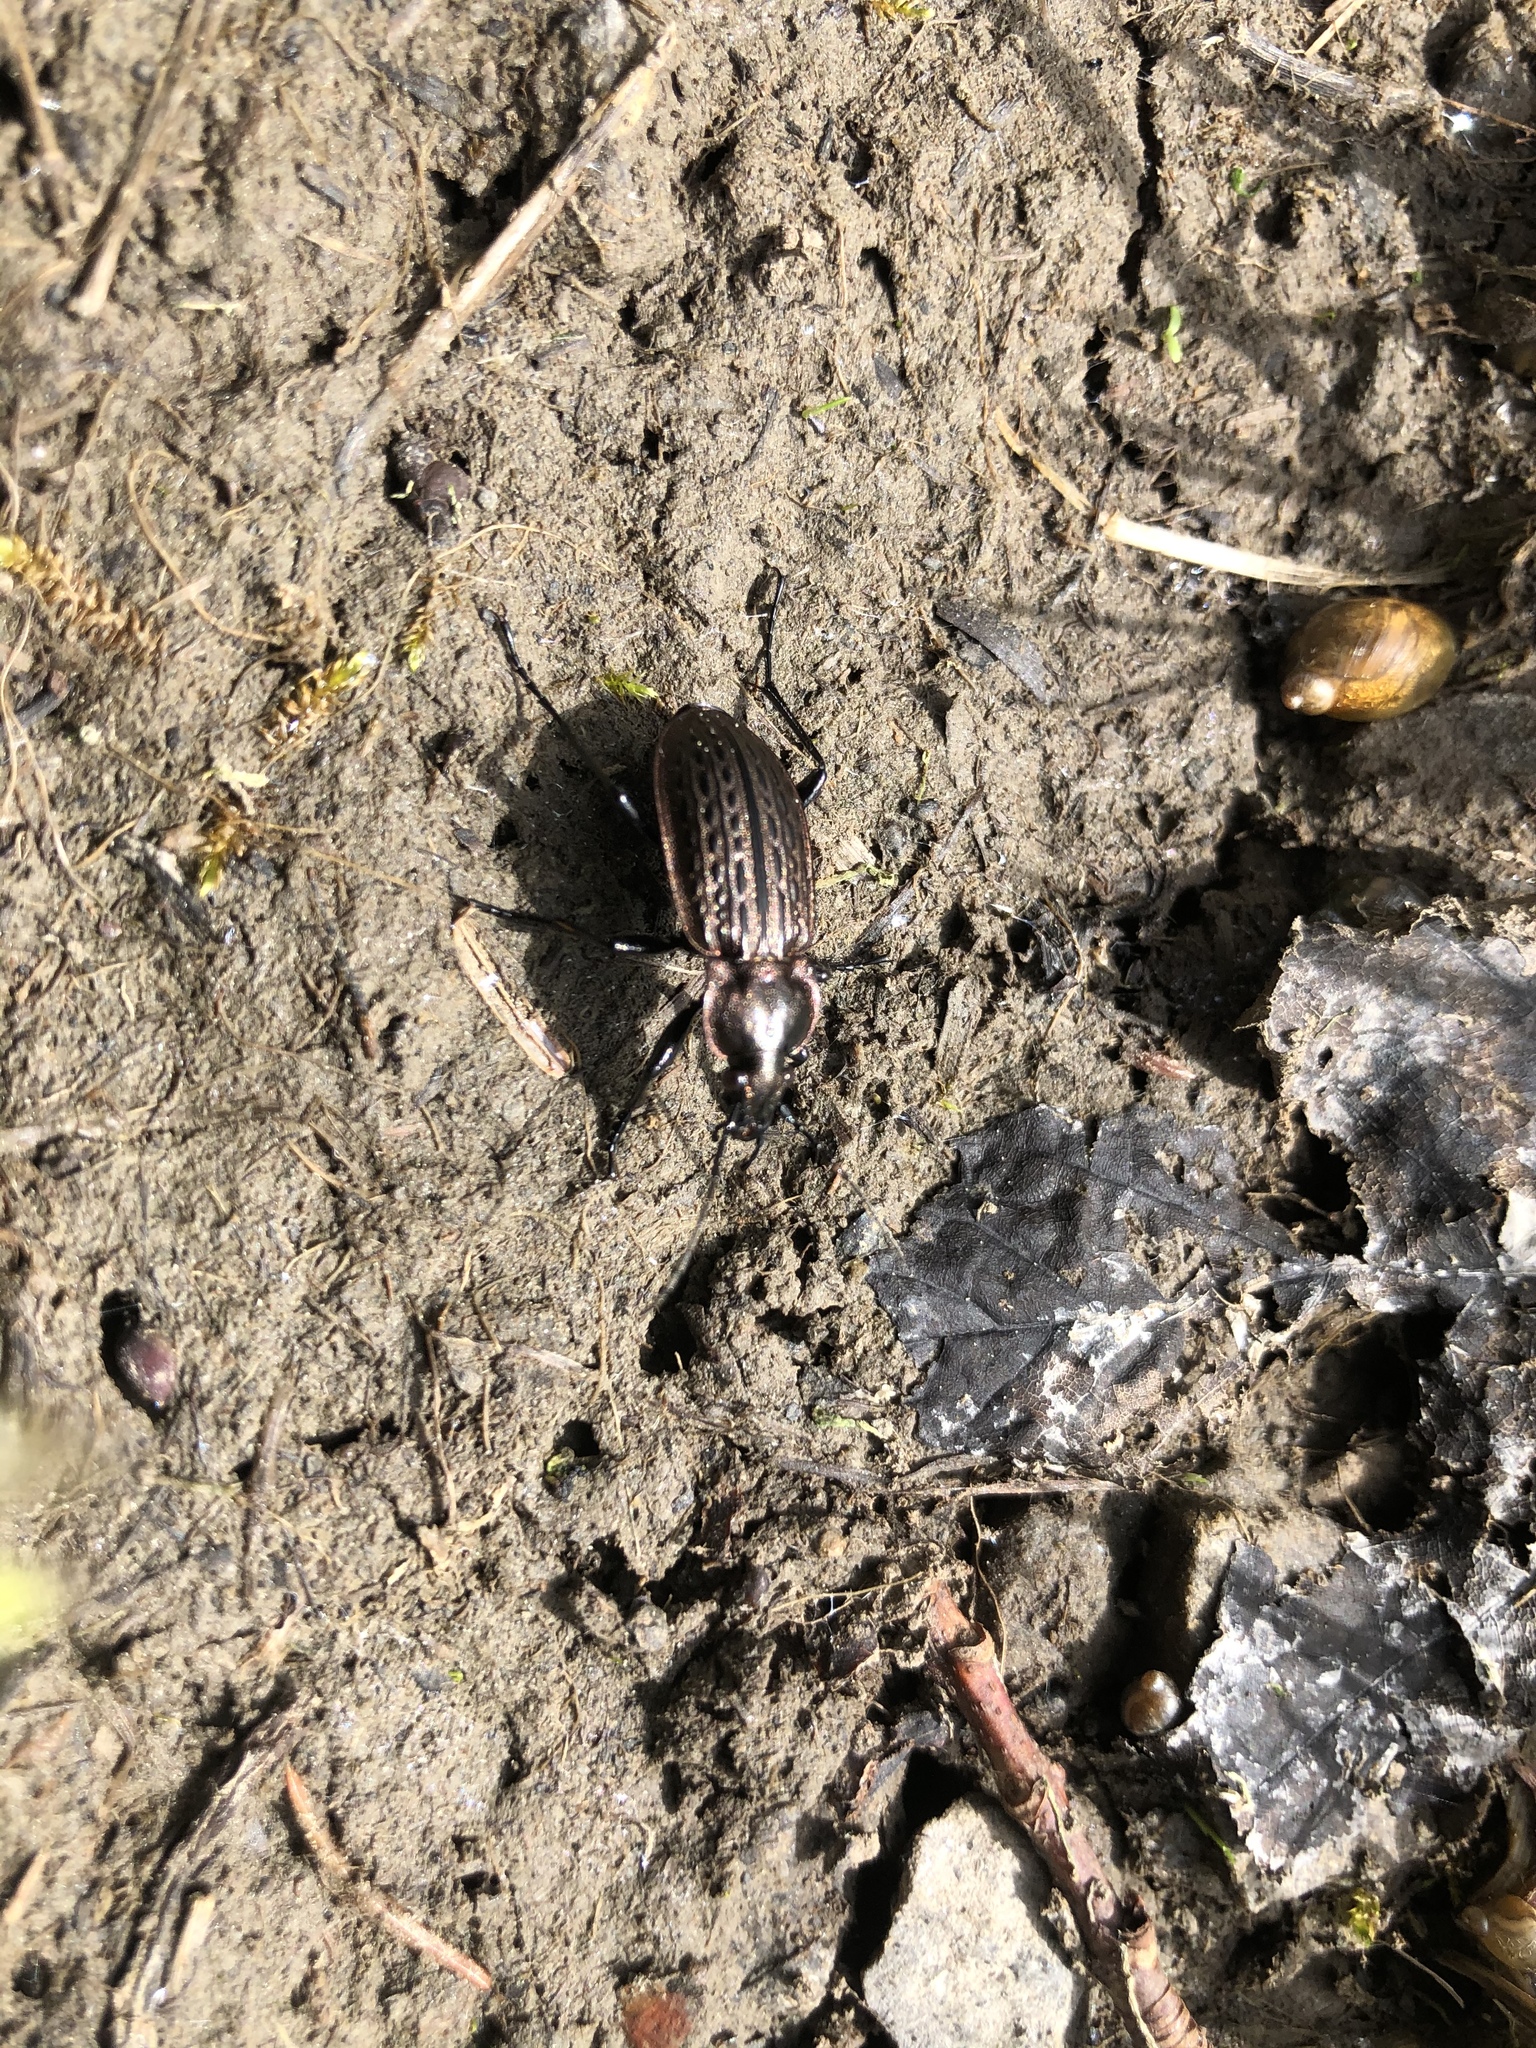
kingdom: Animalia
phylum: Arthropoda
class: Insecta
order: Coleoptera
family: Carabidae
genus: Carabus
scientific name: Carabus maeander
